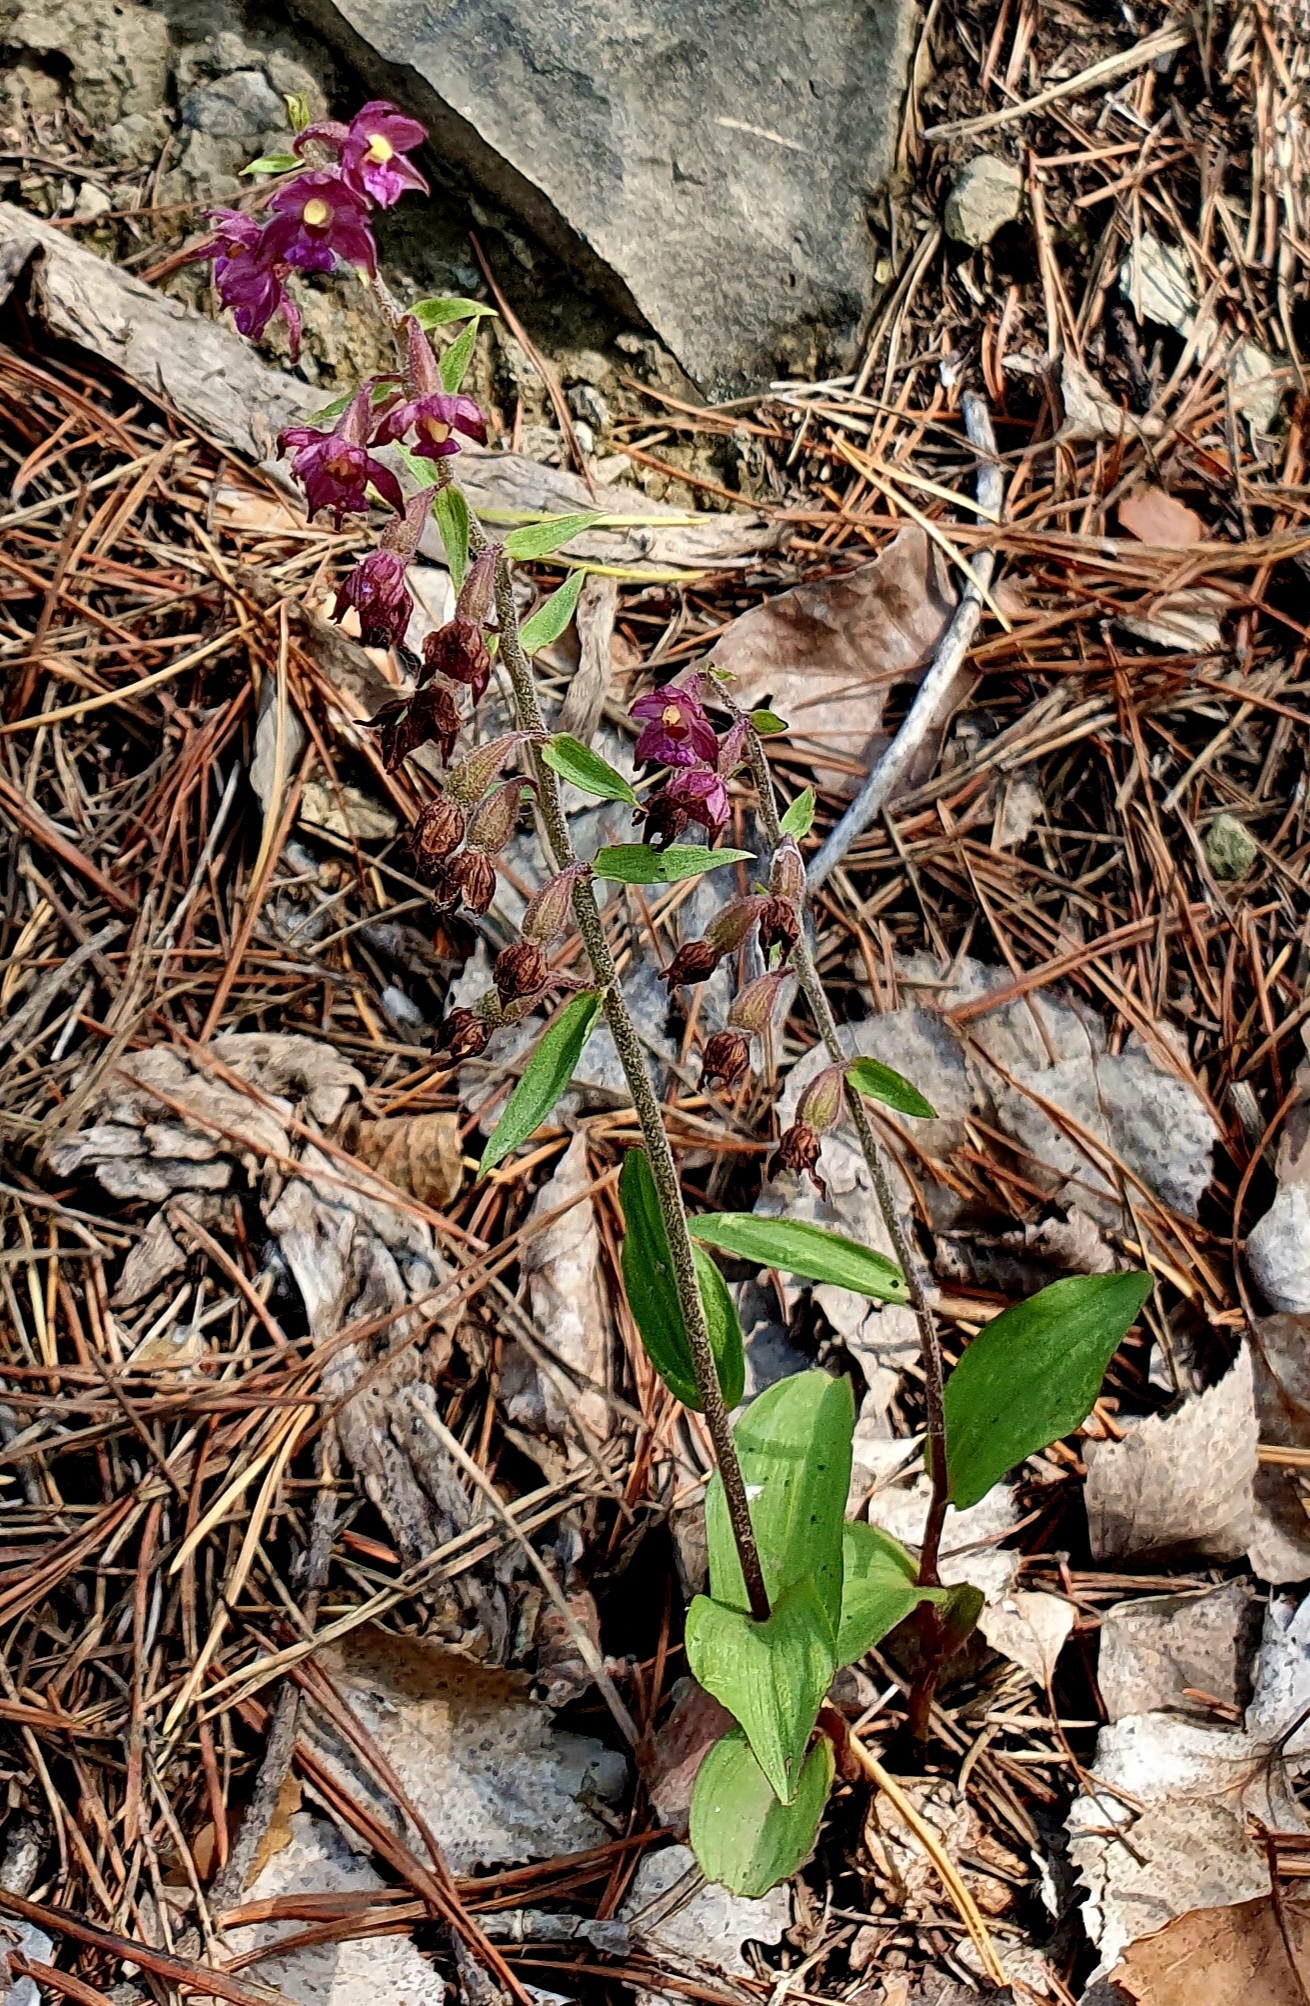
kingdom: Plantae
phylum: Tracheophyta
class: Liliopsida
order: Asparagales
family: Orchidaceae
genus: Epipactis
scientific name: Epipactis atrorubens
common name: Dark-red helleborine
